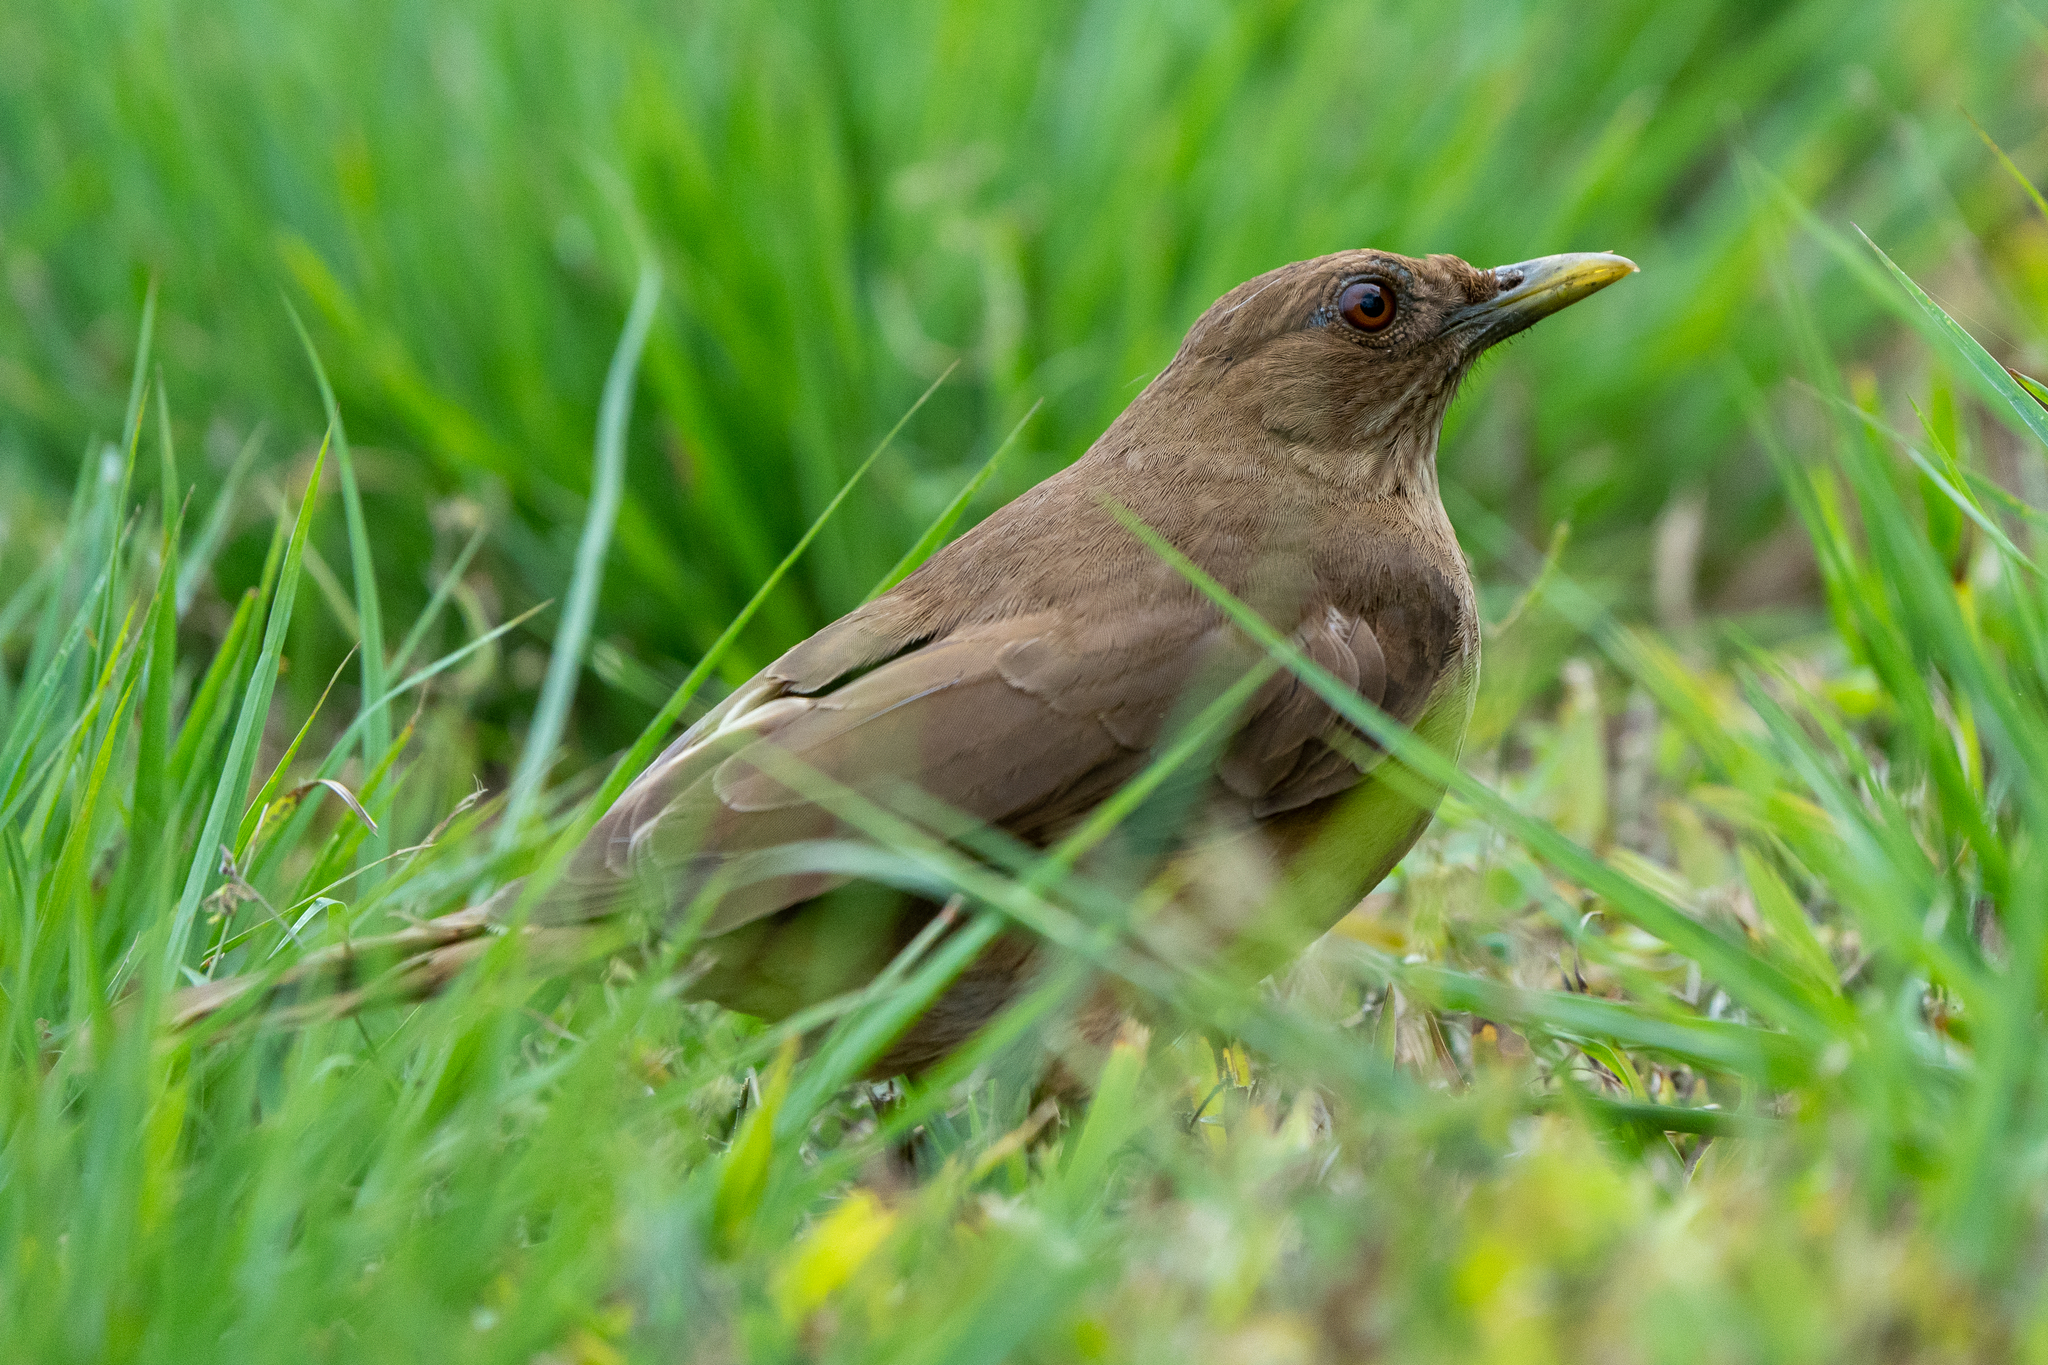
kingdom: Animalia
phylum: Chordata
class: Aves
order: Passeriformes
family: Turdidae
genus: Turdus
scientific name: Turdus grayi
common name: Clay-colored thrush
